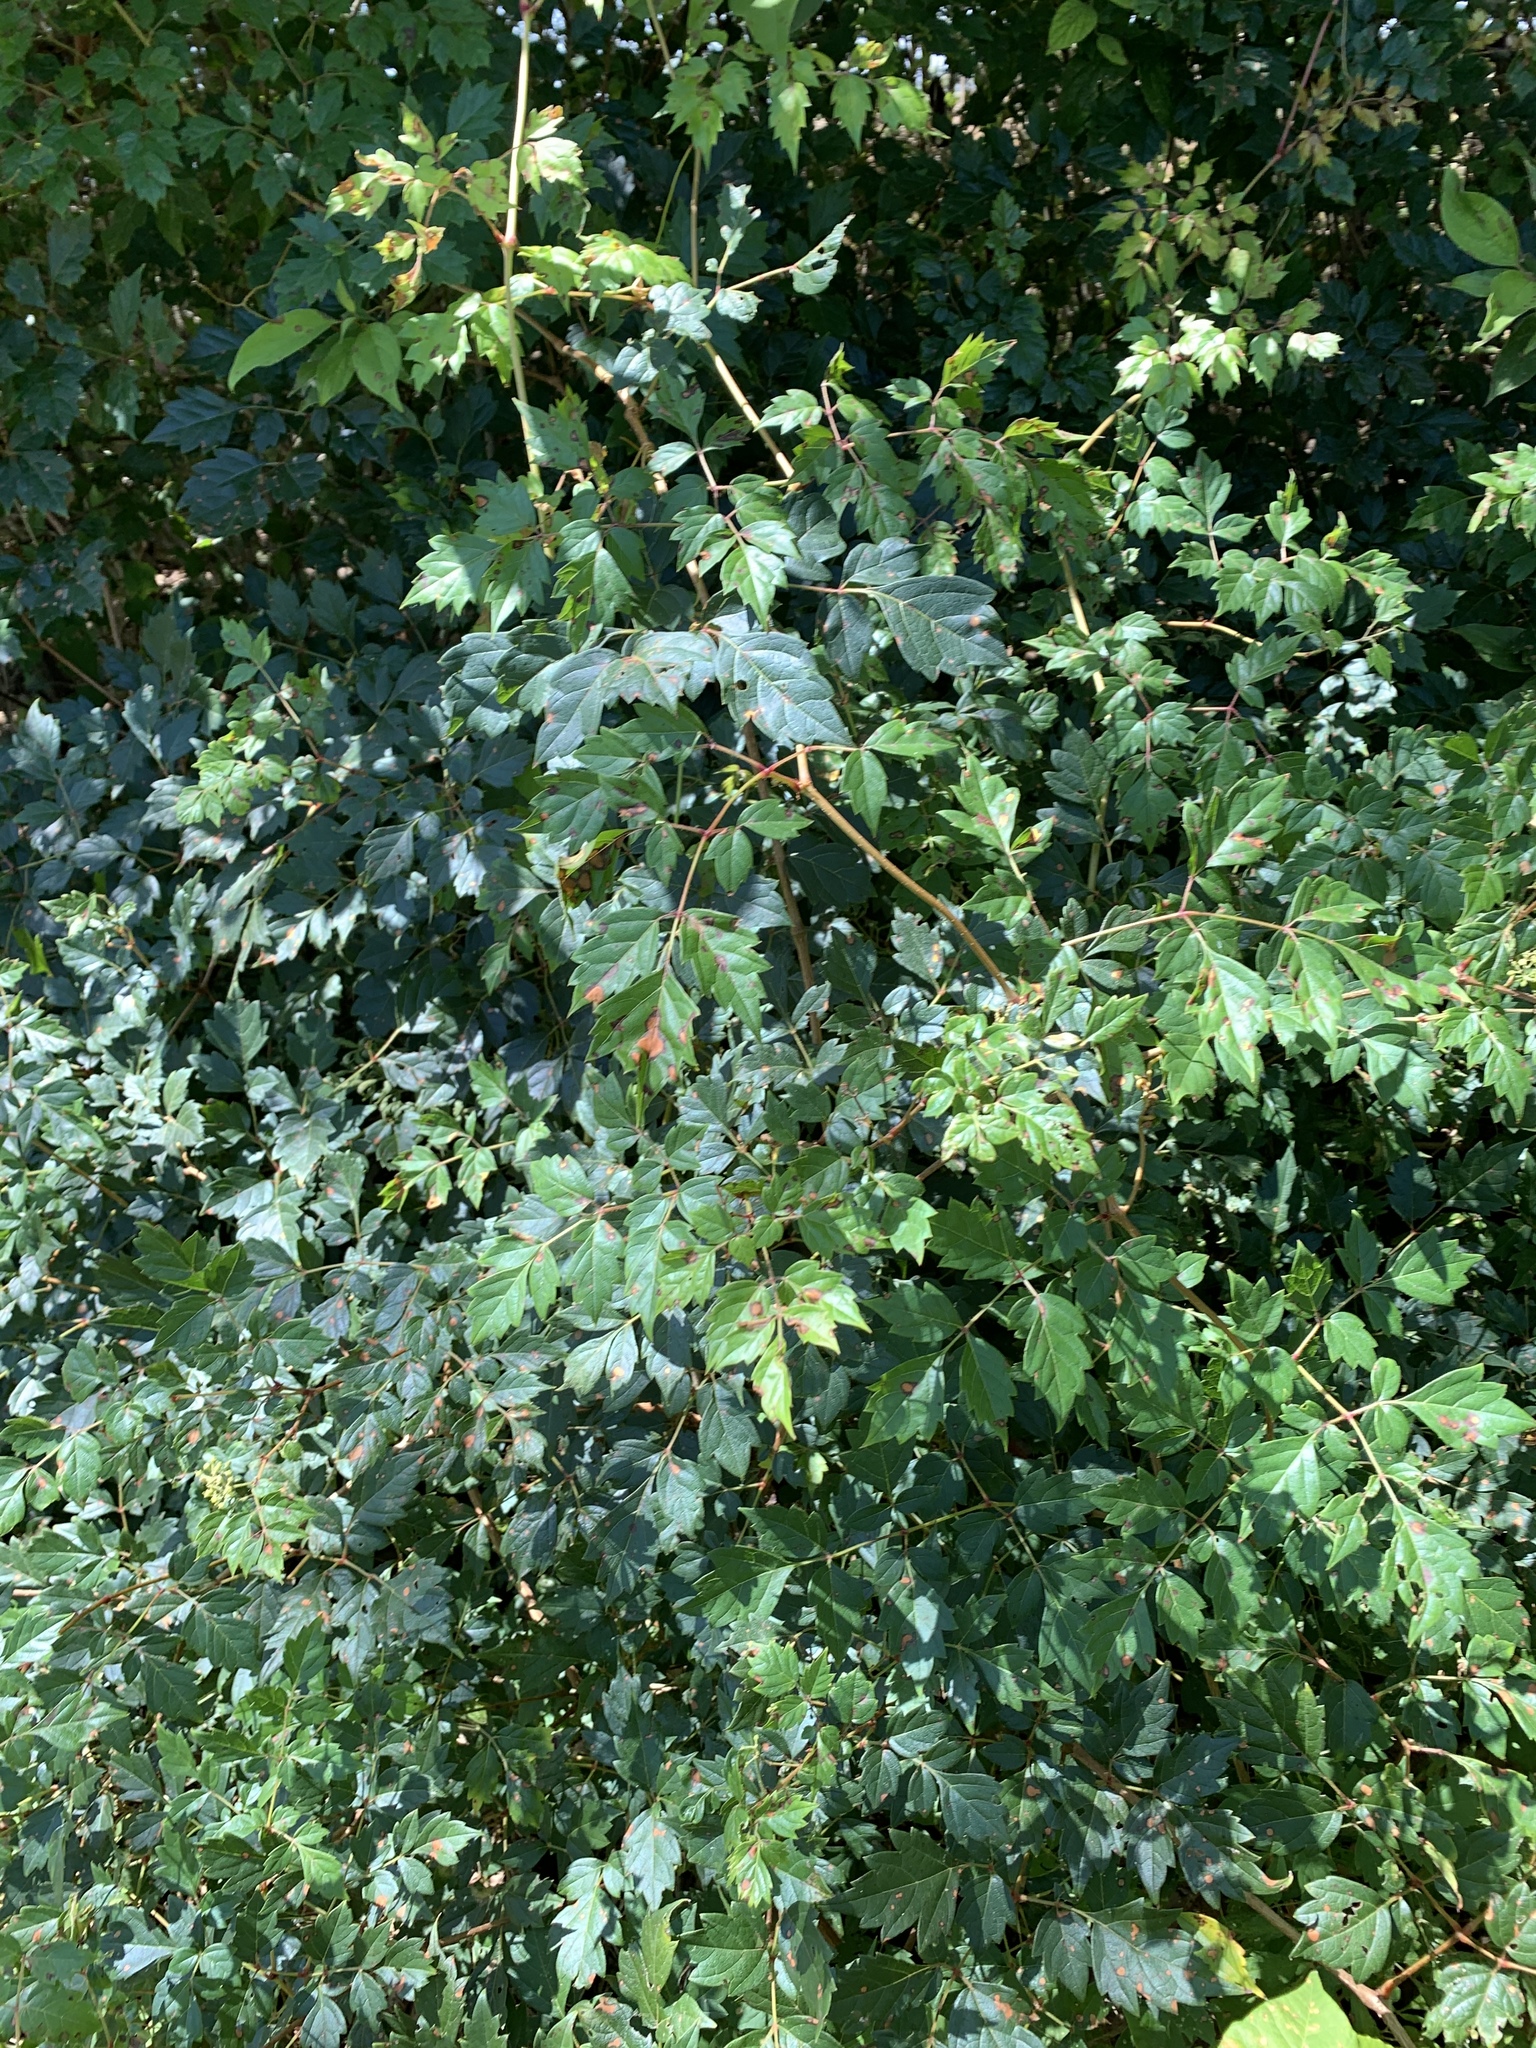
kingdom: Plantae
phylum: Tracheophyta
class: Magnoliopsida
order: Vitales
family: Vitaceae
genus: Nekemias
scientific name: Nekemias arborea
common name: Peppervine
